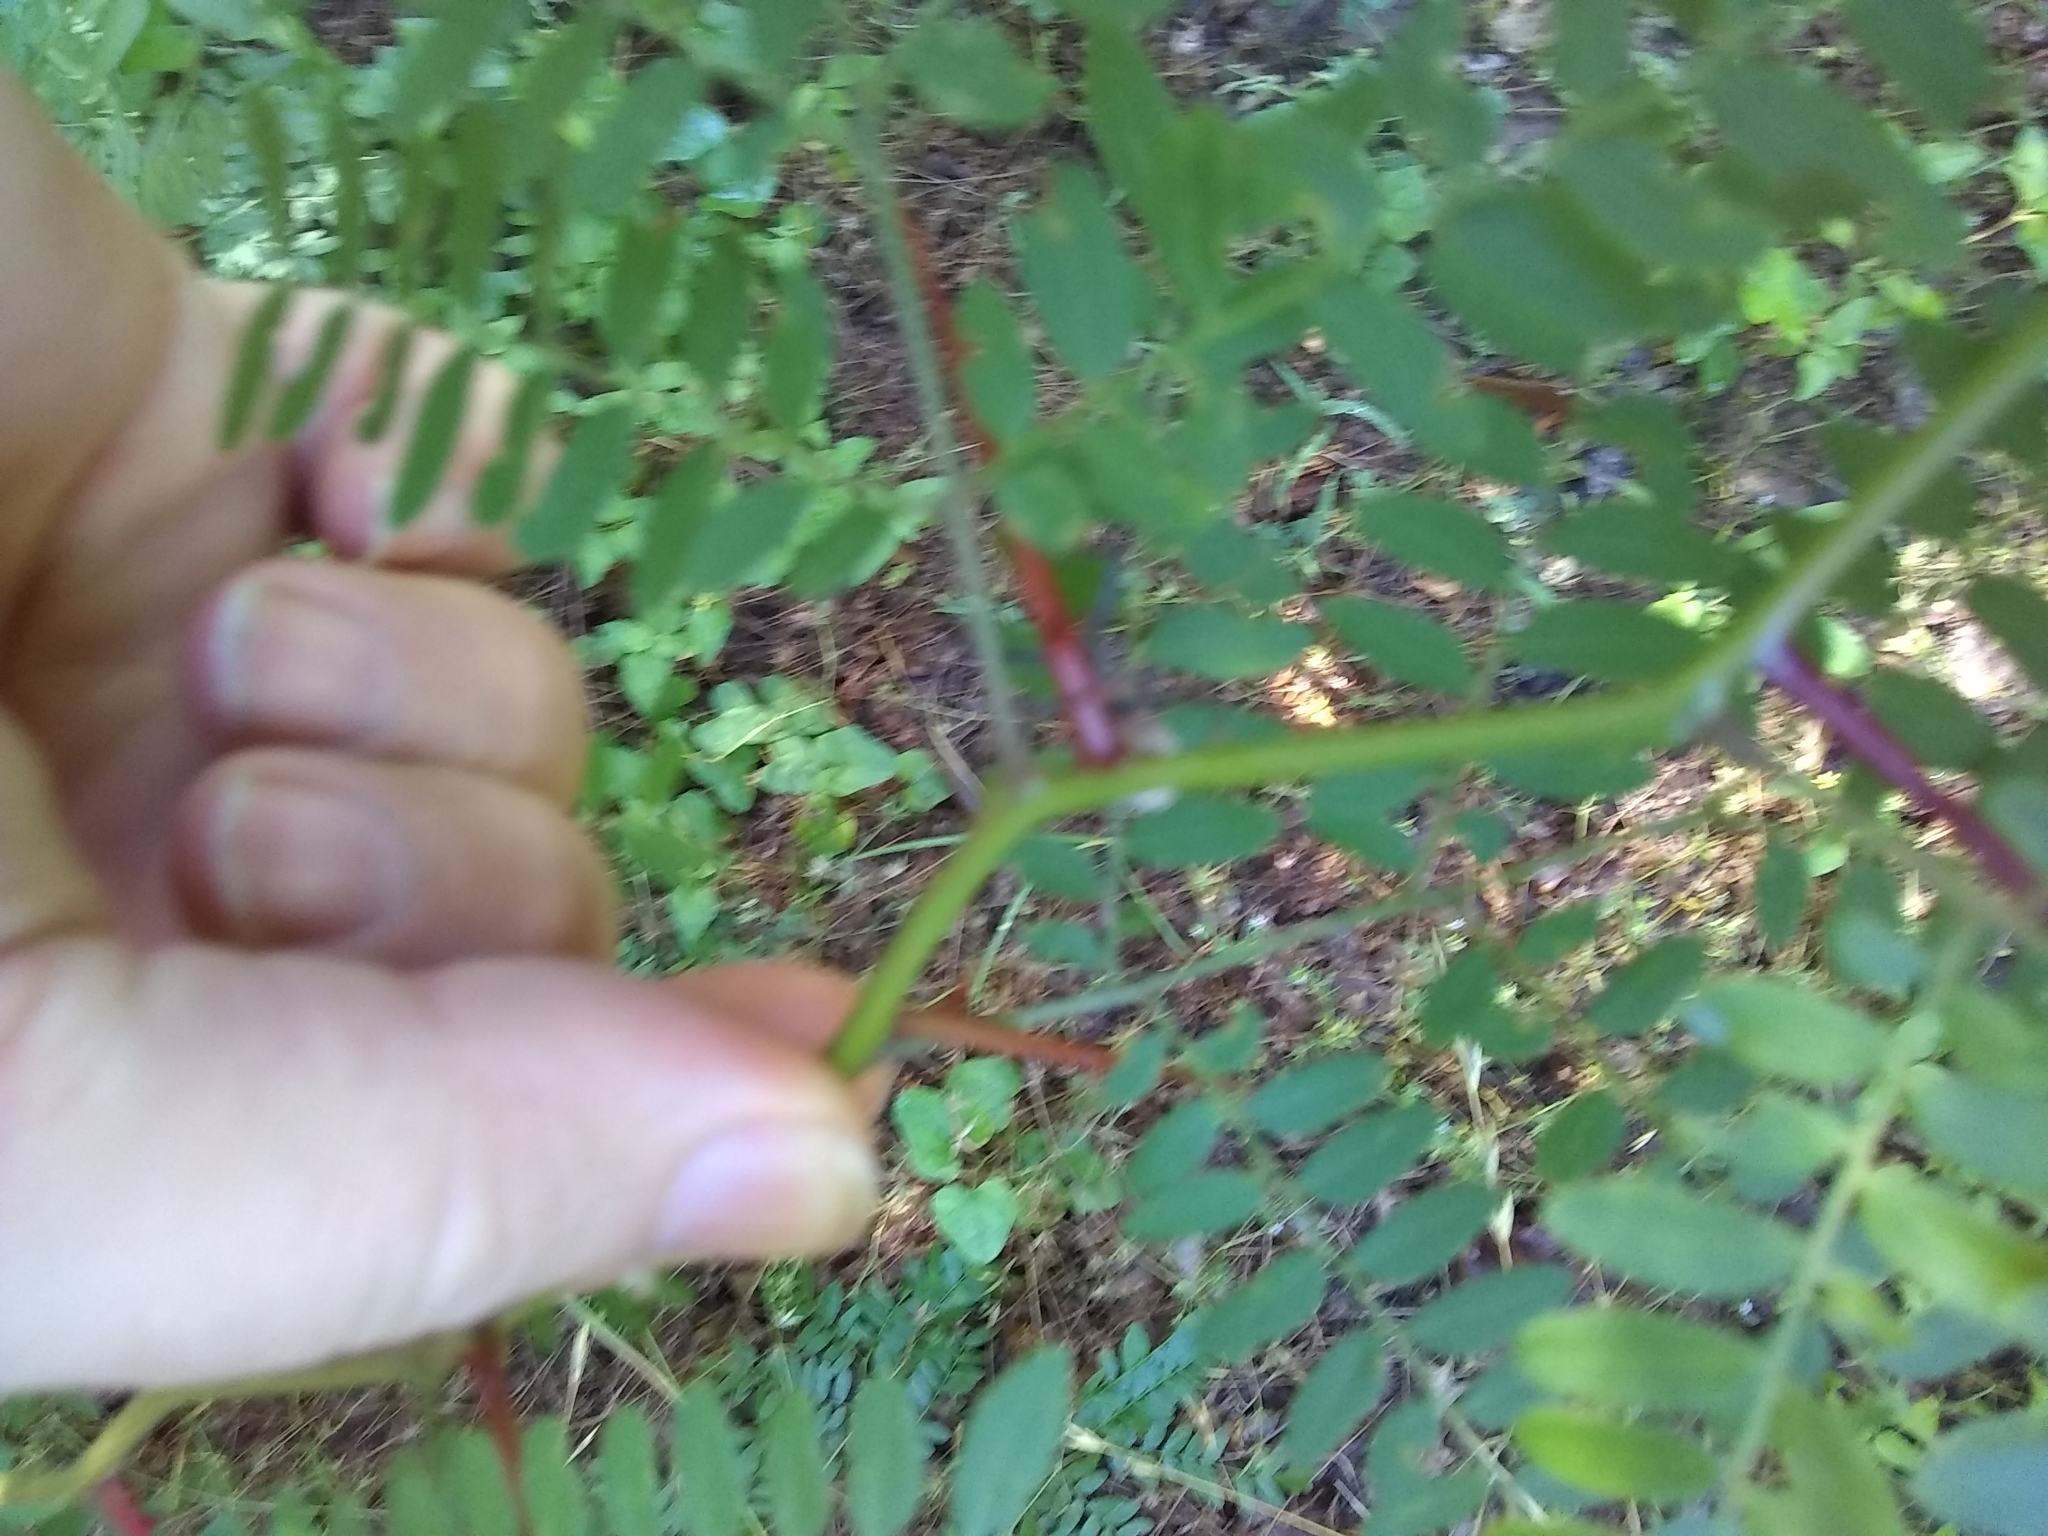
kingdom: Plantae
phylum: Tracheophyta
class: Magnoliopsida
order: Fabales
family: Fabaceae
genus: Gleditsia
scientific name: Gleditsia triacanthos
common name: Common honeylocust
